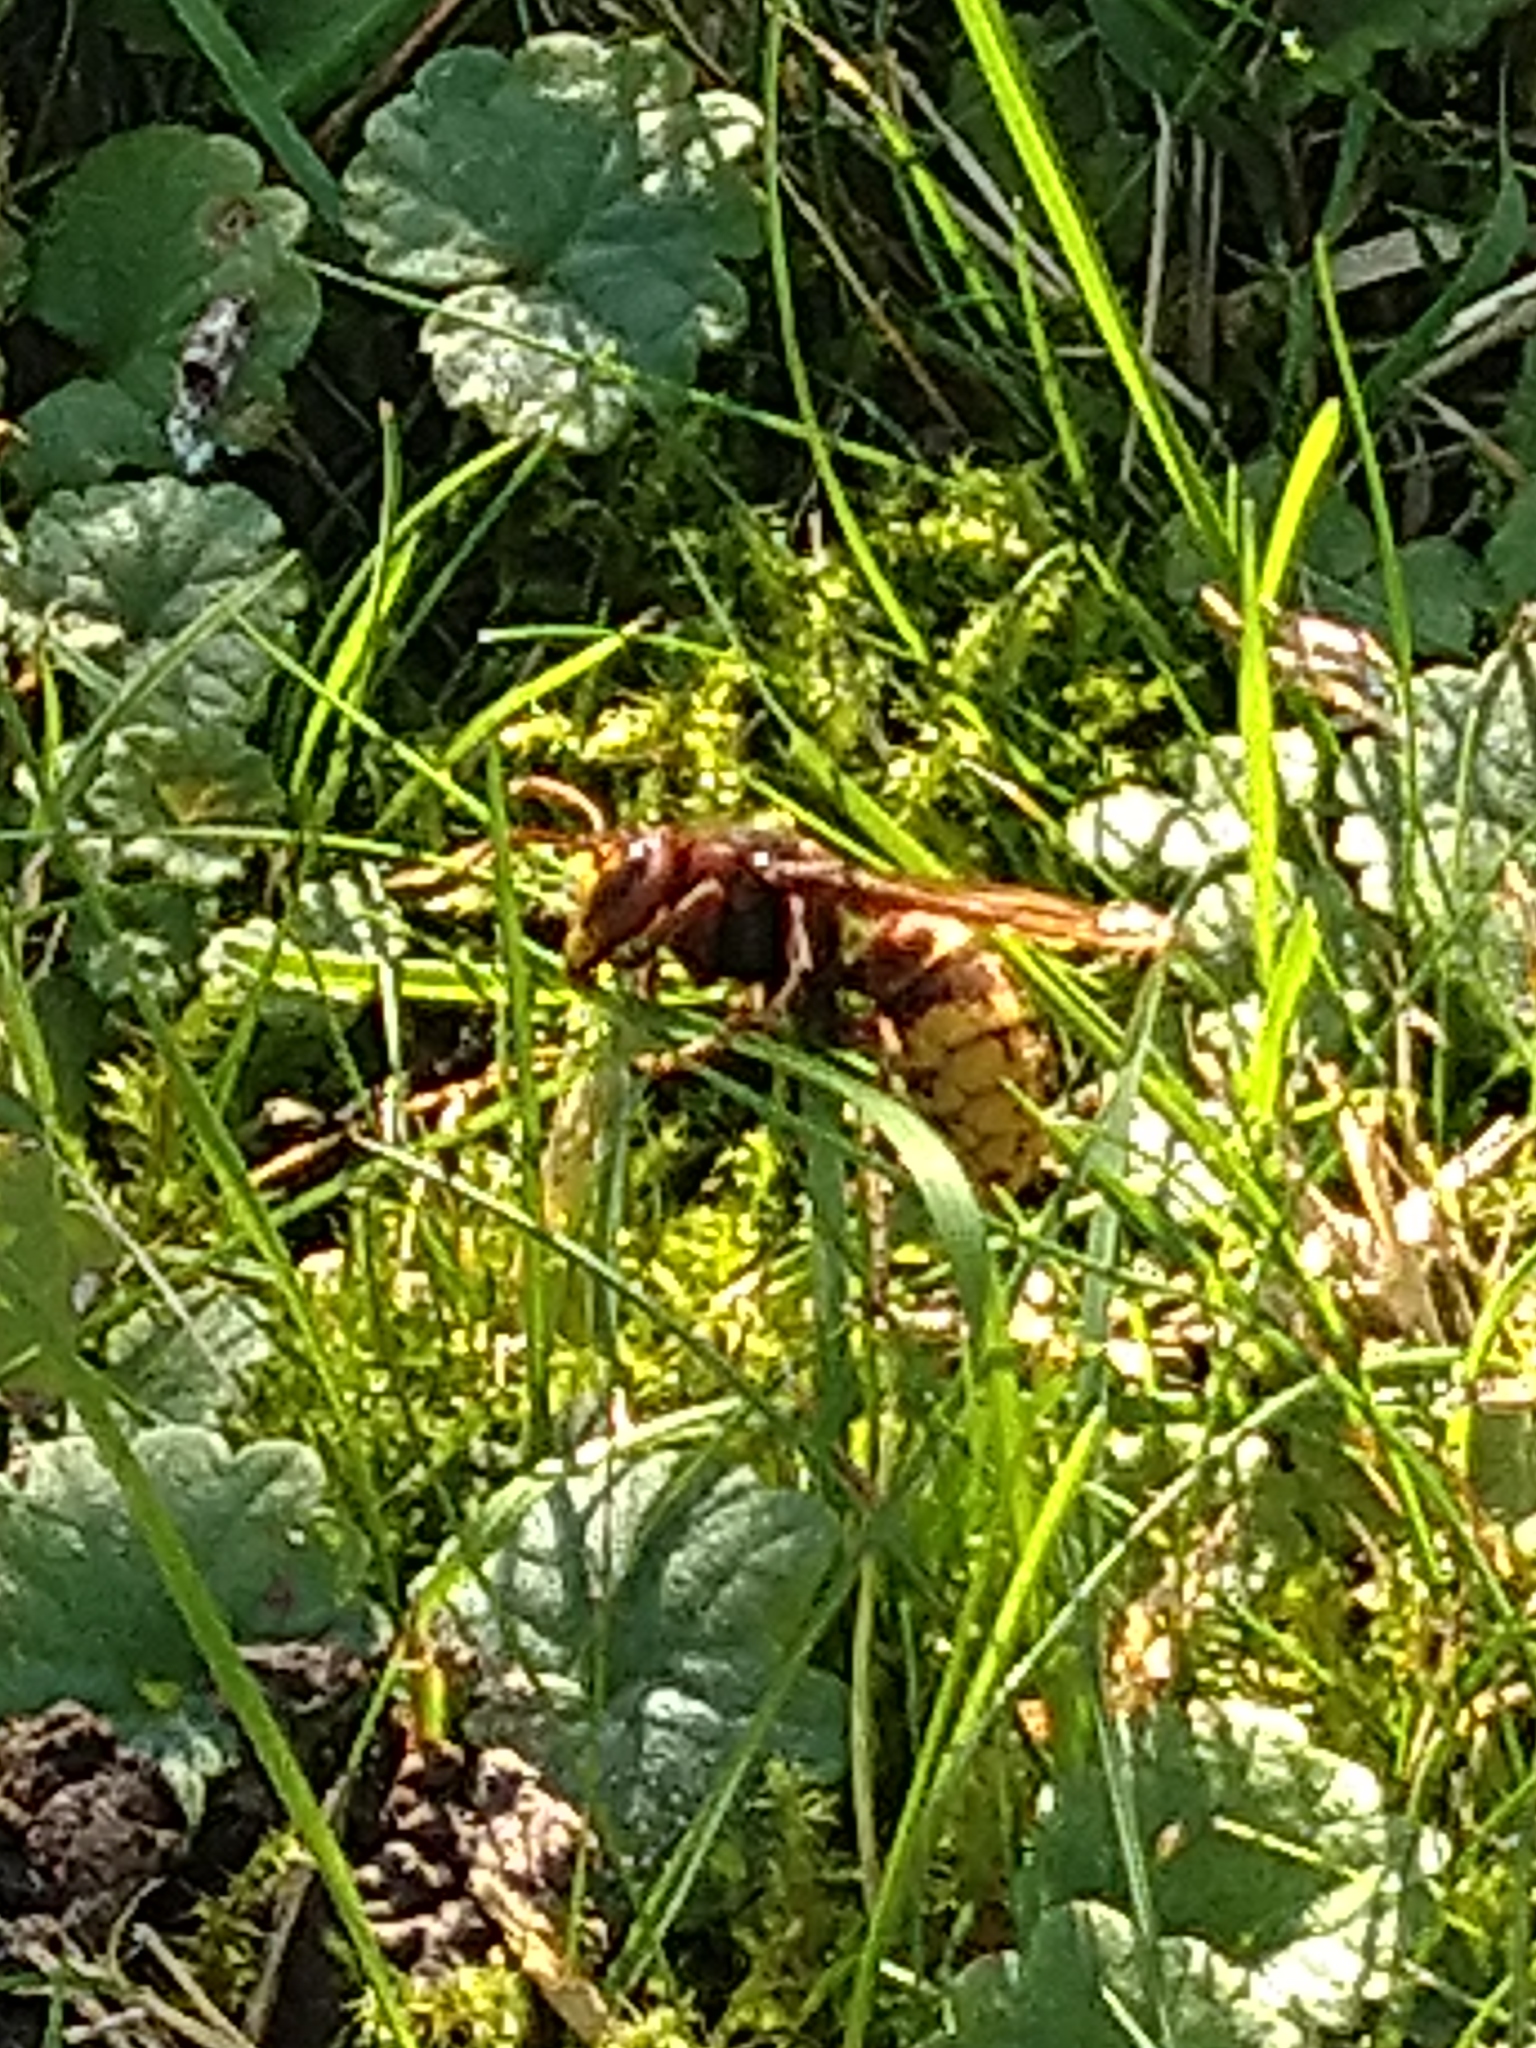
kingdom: Animalia
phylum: Arthropoda
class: Insecta
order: Hymenoptera
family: Vespidae
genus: Vespa
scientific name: Vespa crabro
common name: Hornet
